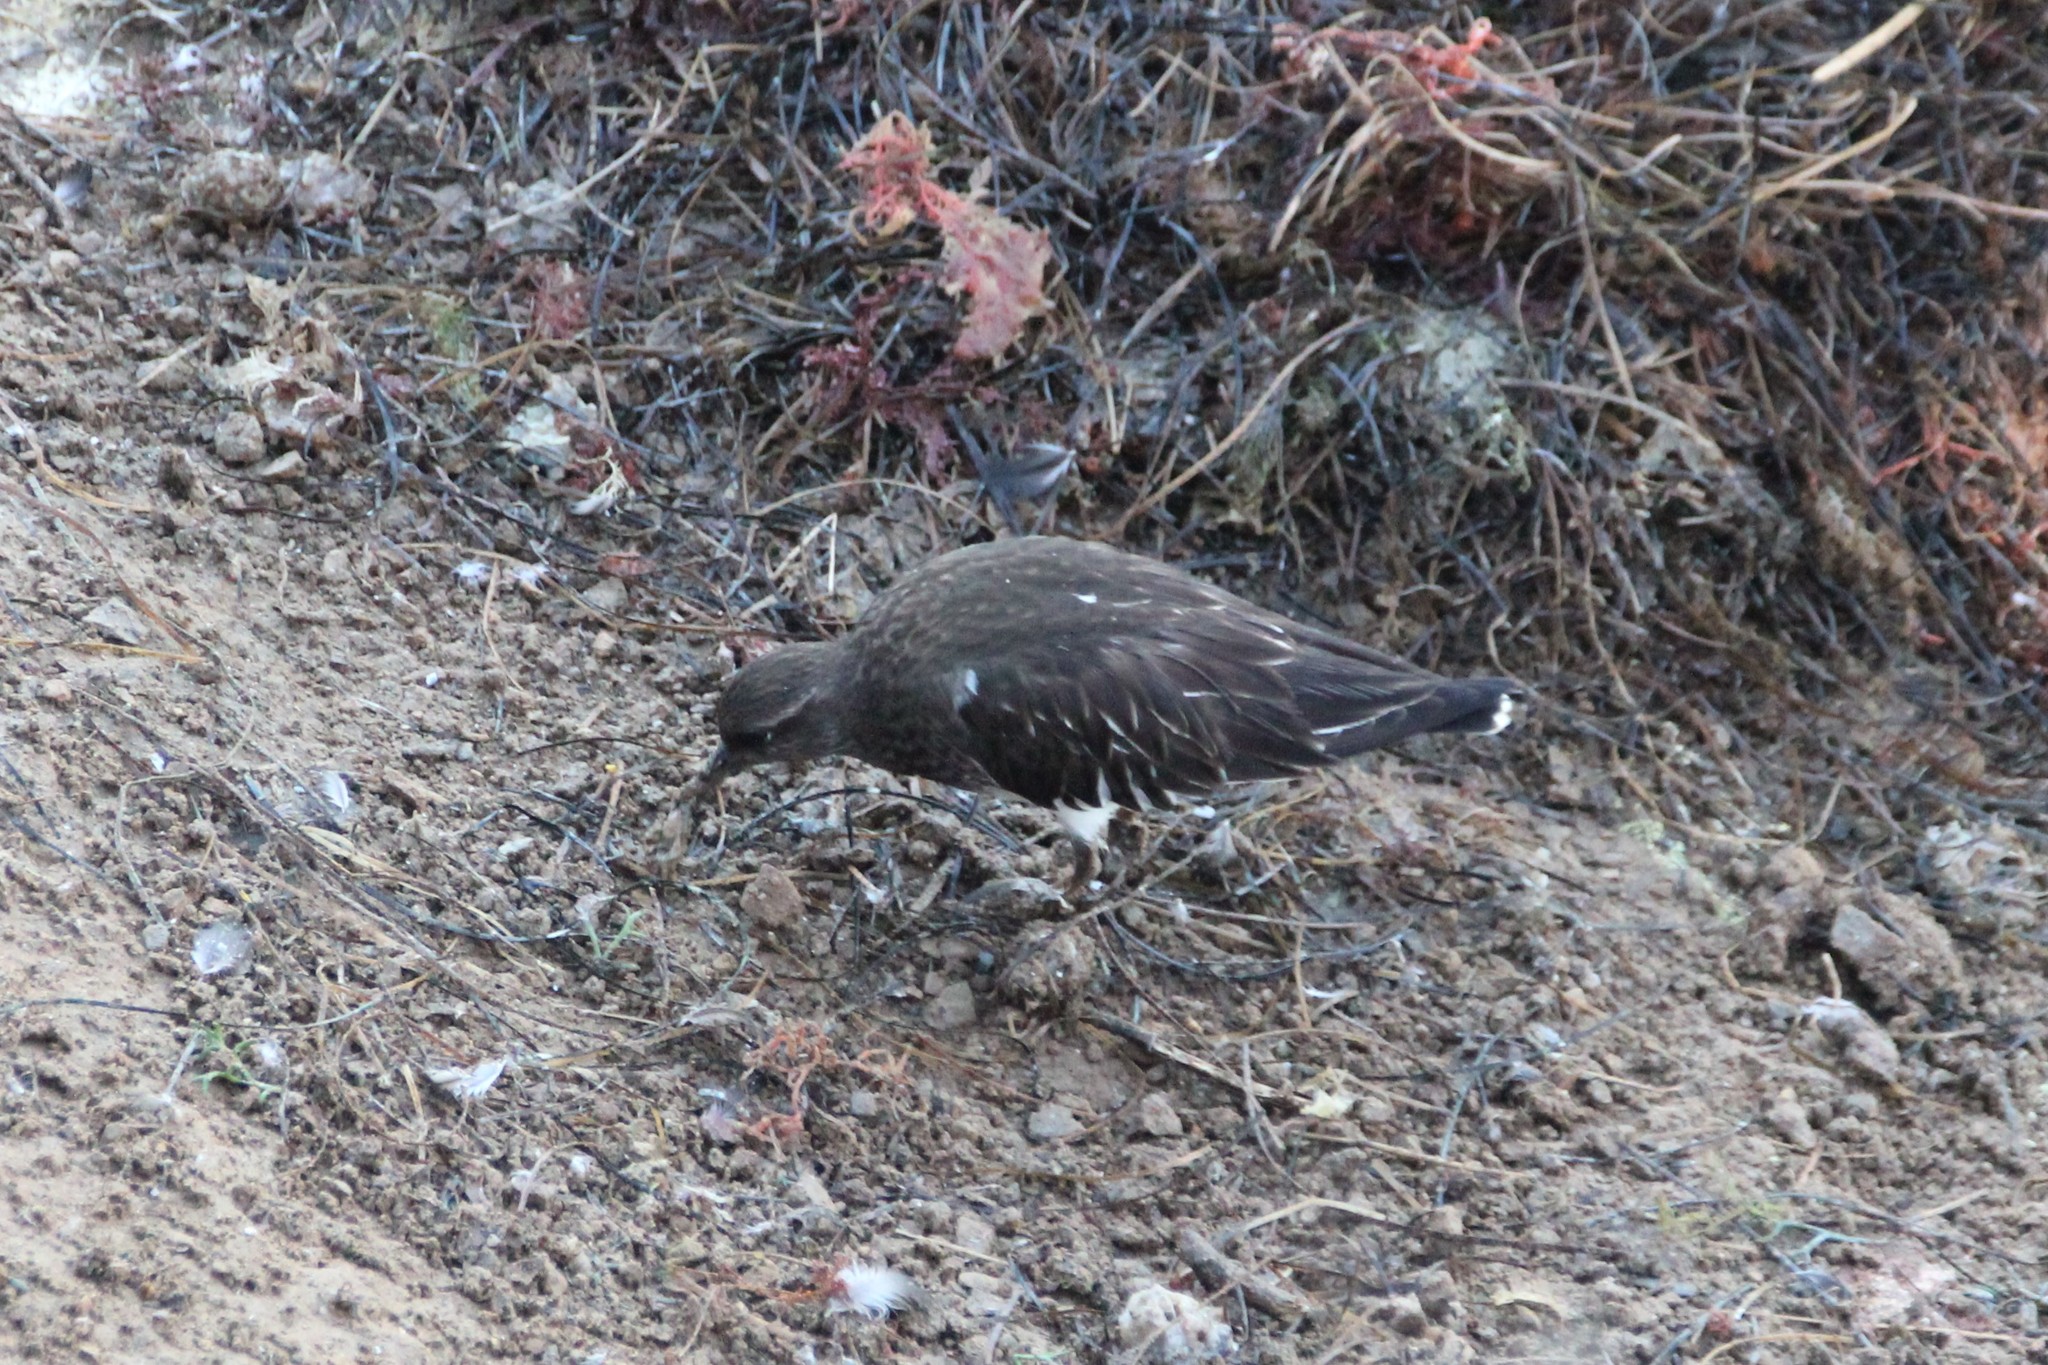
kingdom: Animalia
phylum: Chordata
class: Aves
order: Charadriiformes
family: Scolopacidae
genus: Arenaria
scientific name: Arenaria melanocephala
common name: Black turnstone
